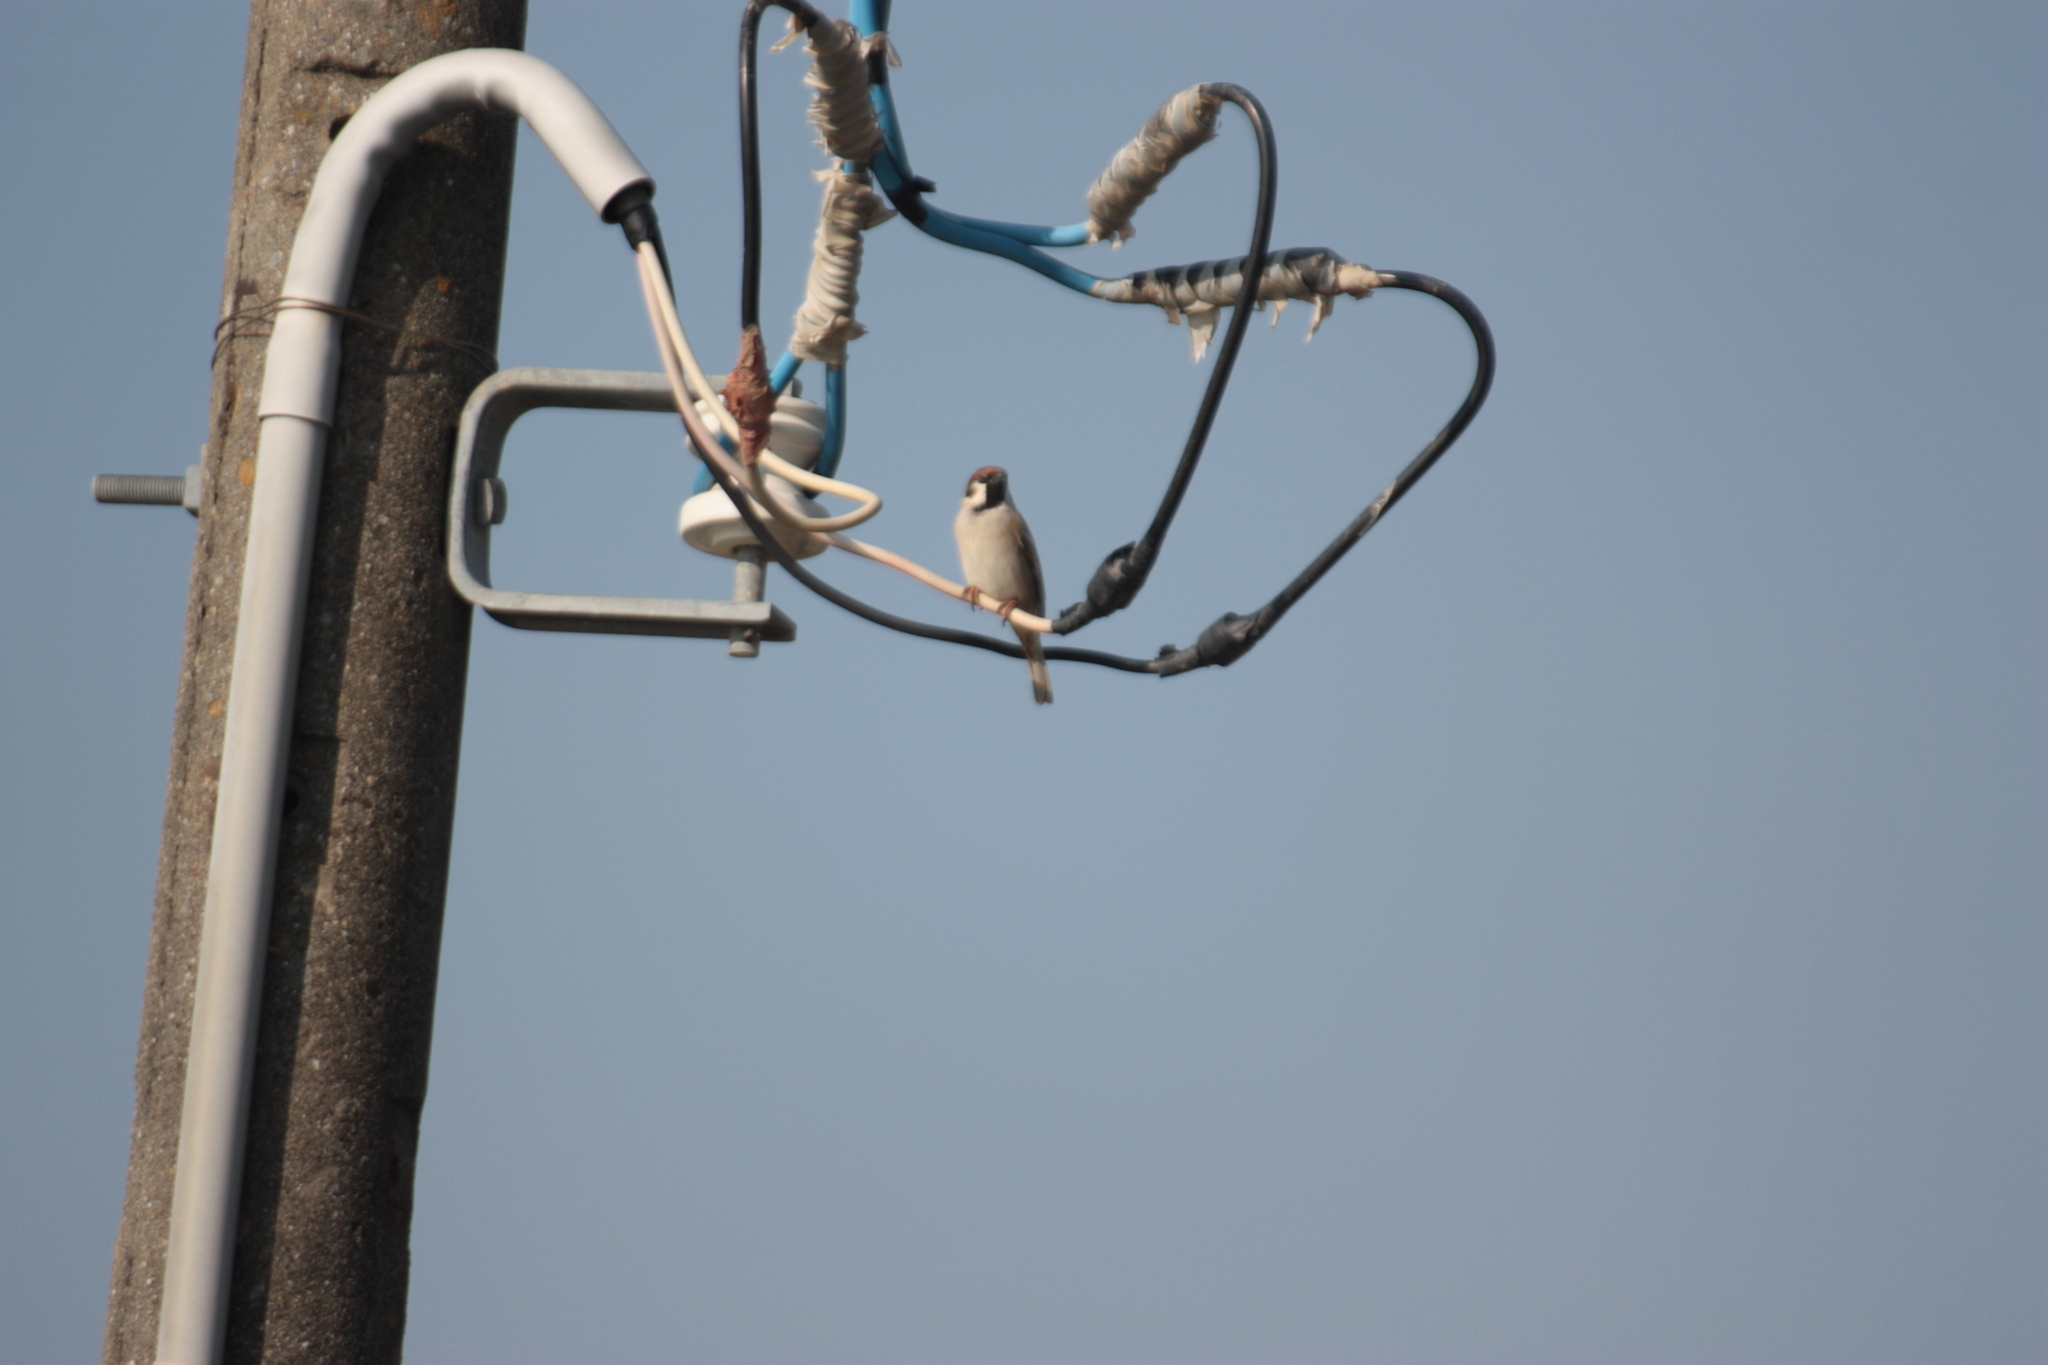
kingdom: Animalia
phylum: Chordata
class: Aves
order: Passeriformes
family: Passeridae
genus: Passer
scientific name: Passer montanus
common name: Eurasian tree sparrow
